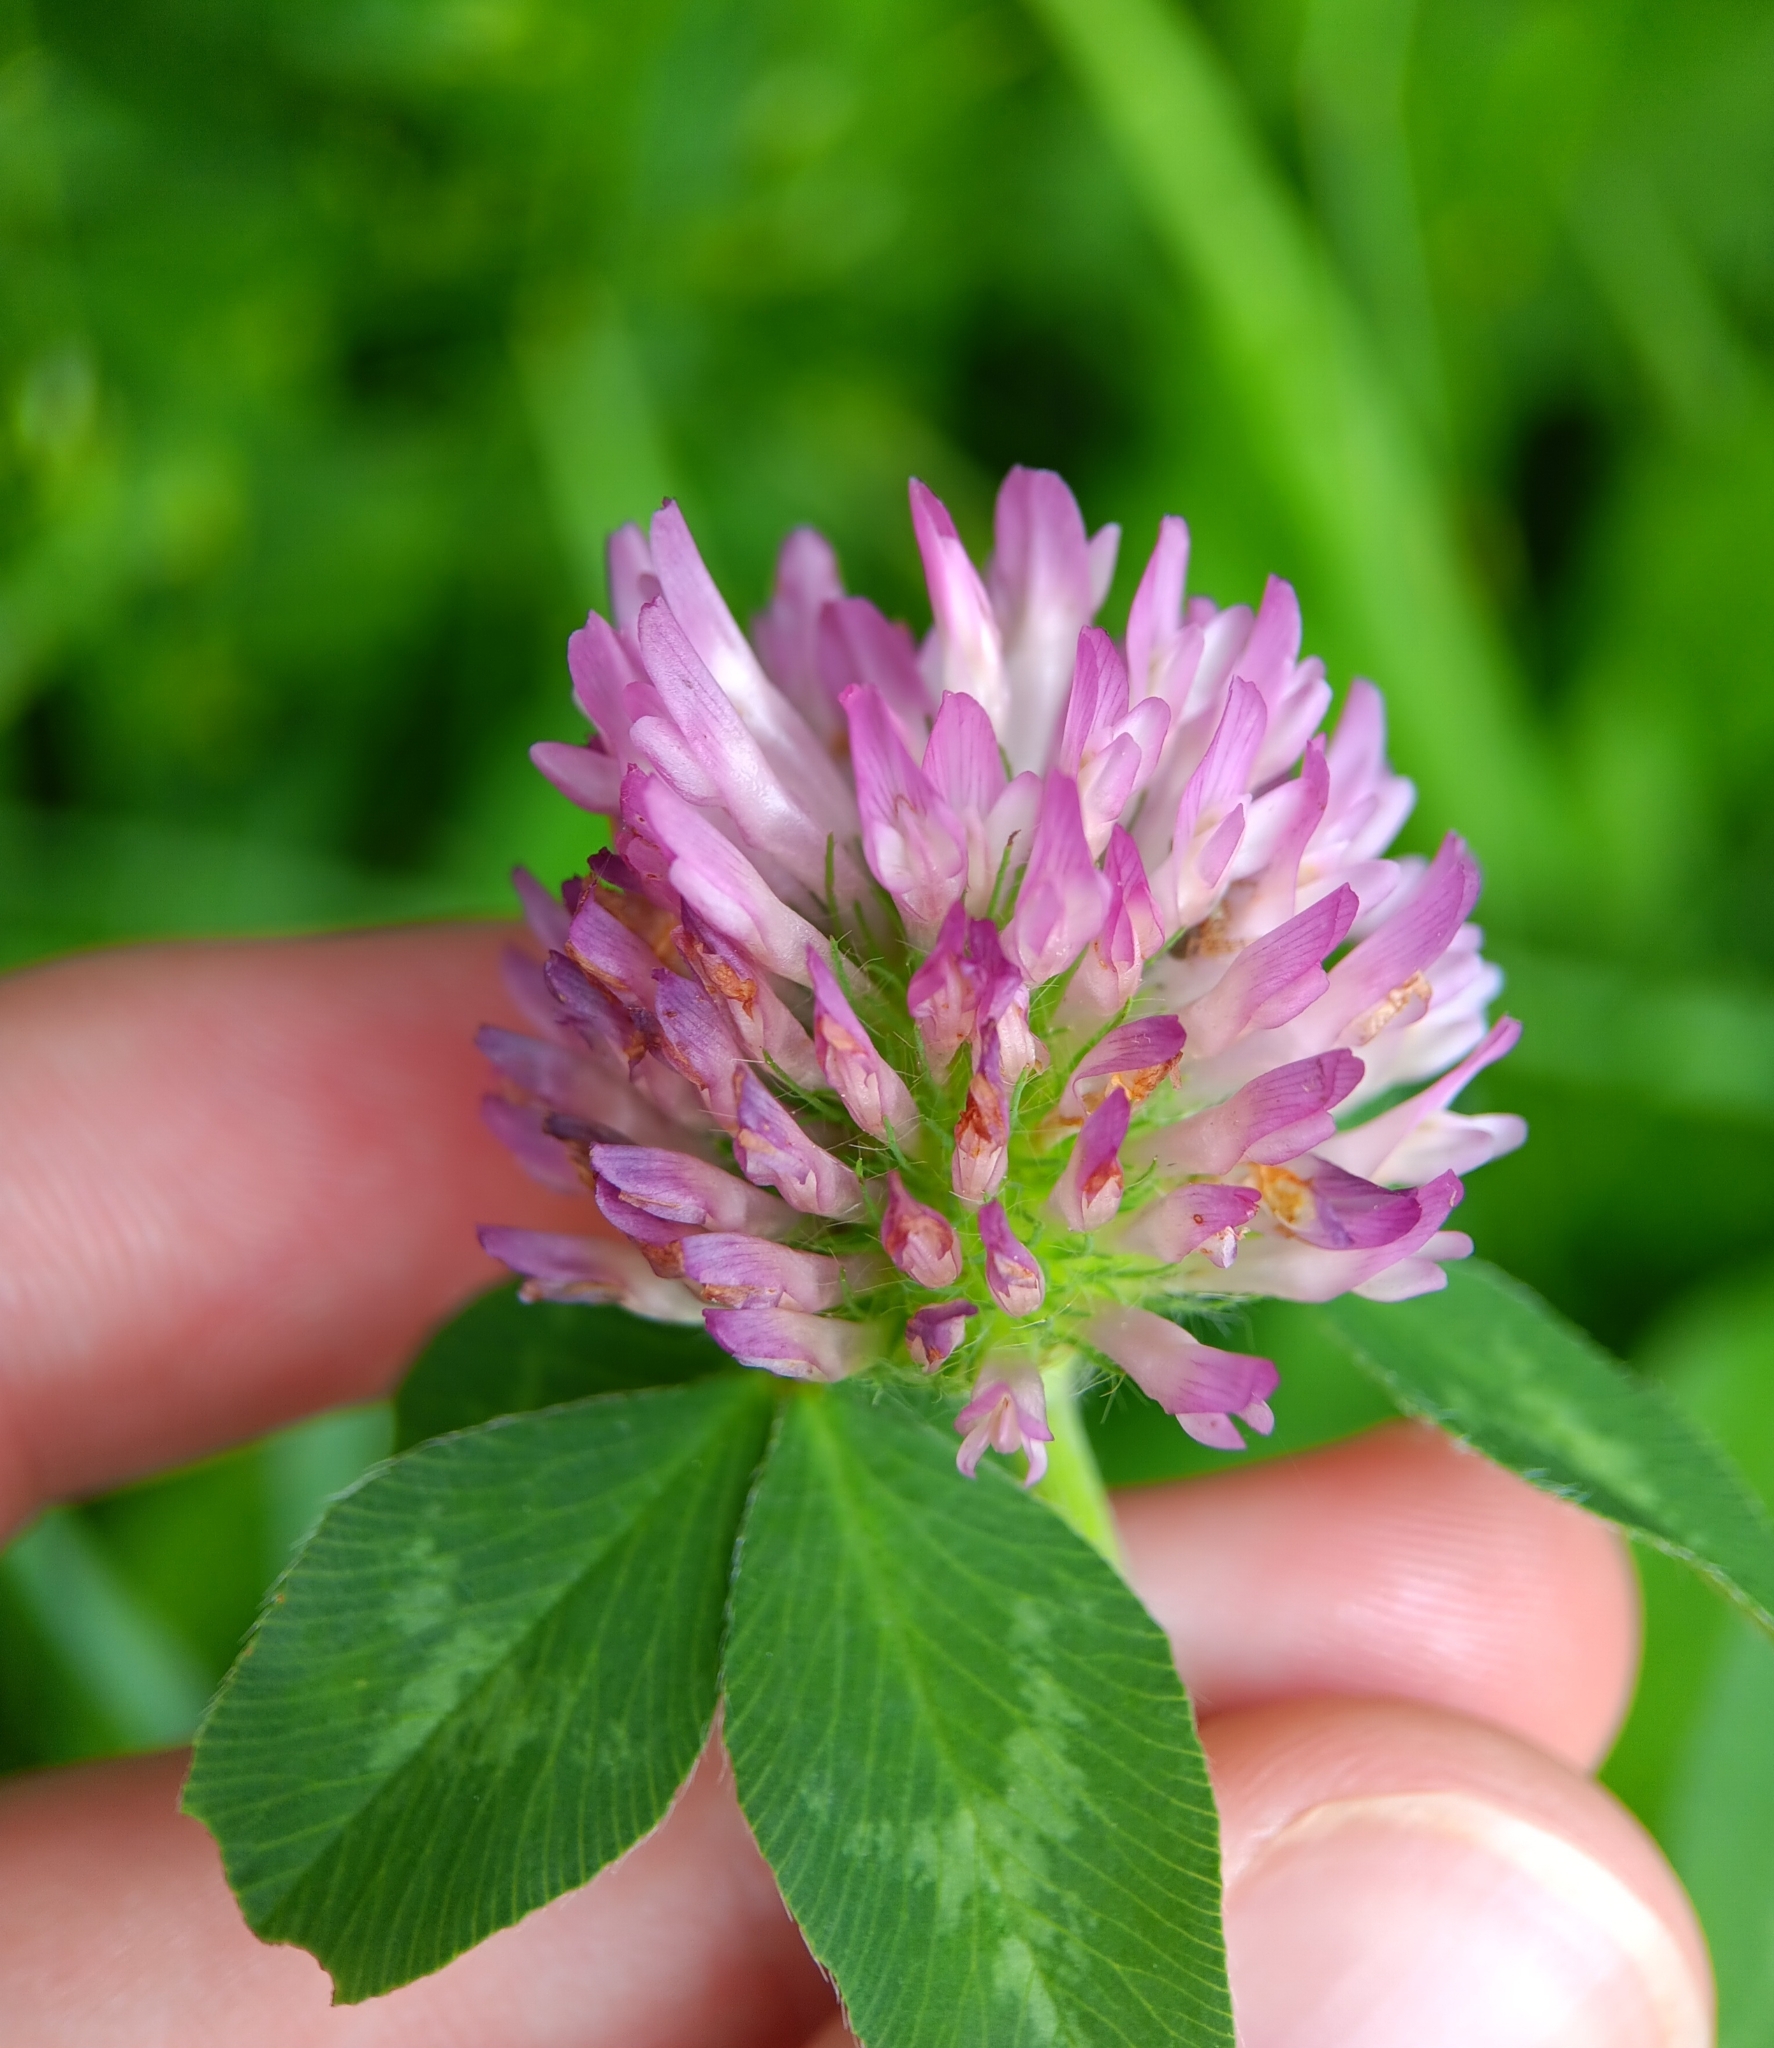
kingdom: Plantae
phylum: Tracheophyta
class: Magnoliopsida
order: Fabales
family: Fabaceae
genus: Trifolium
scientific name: Trifolium pratense
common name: Red clover
